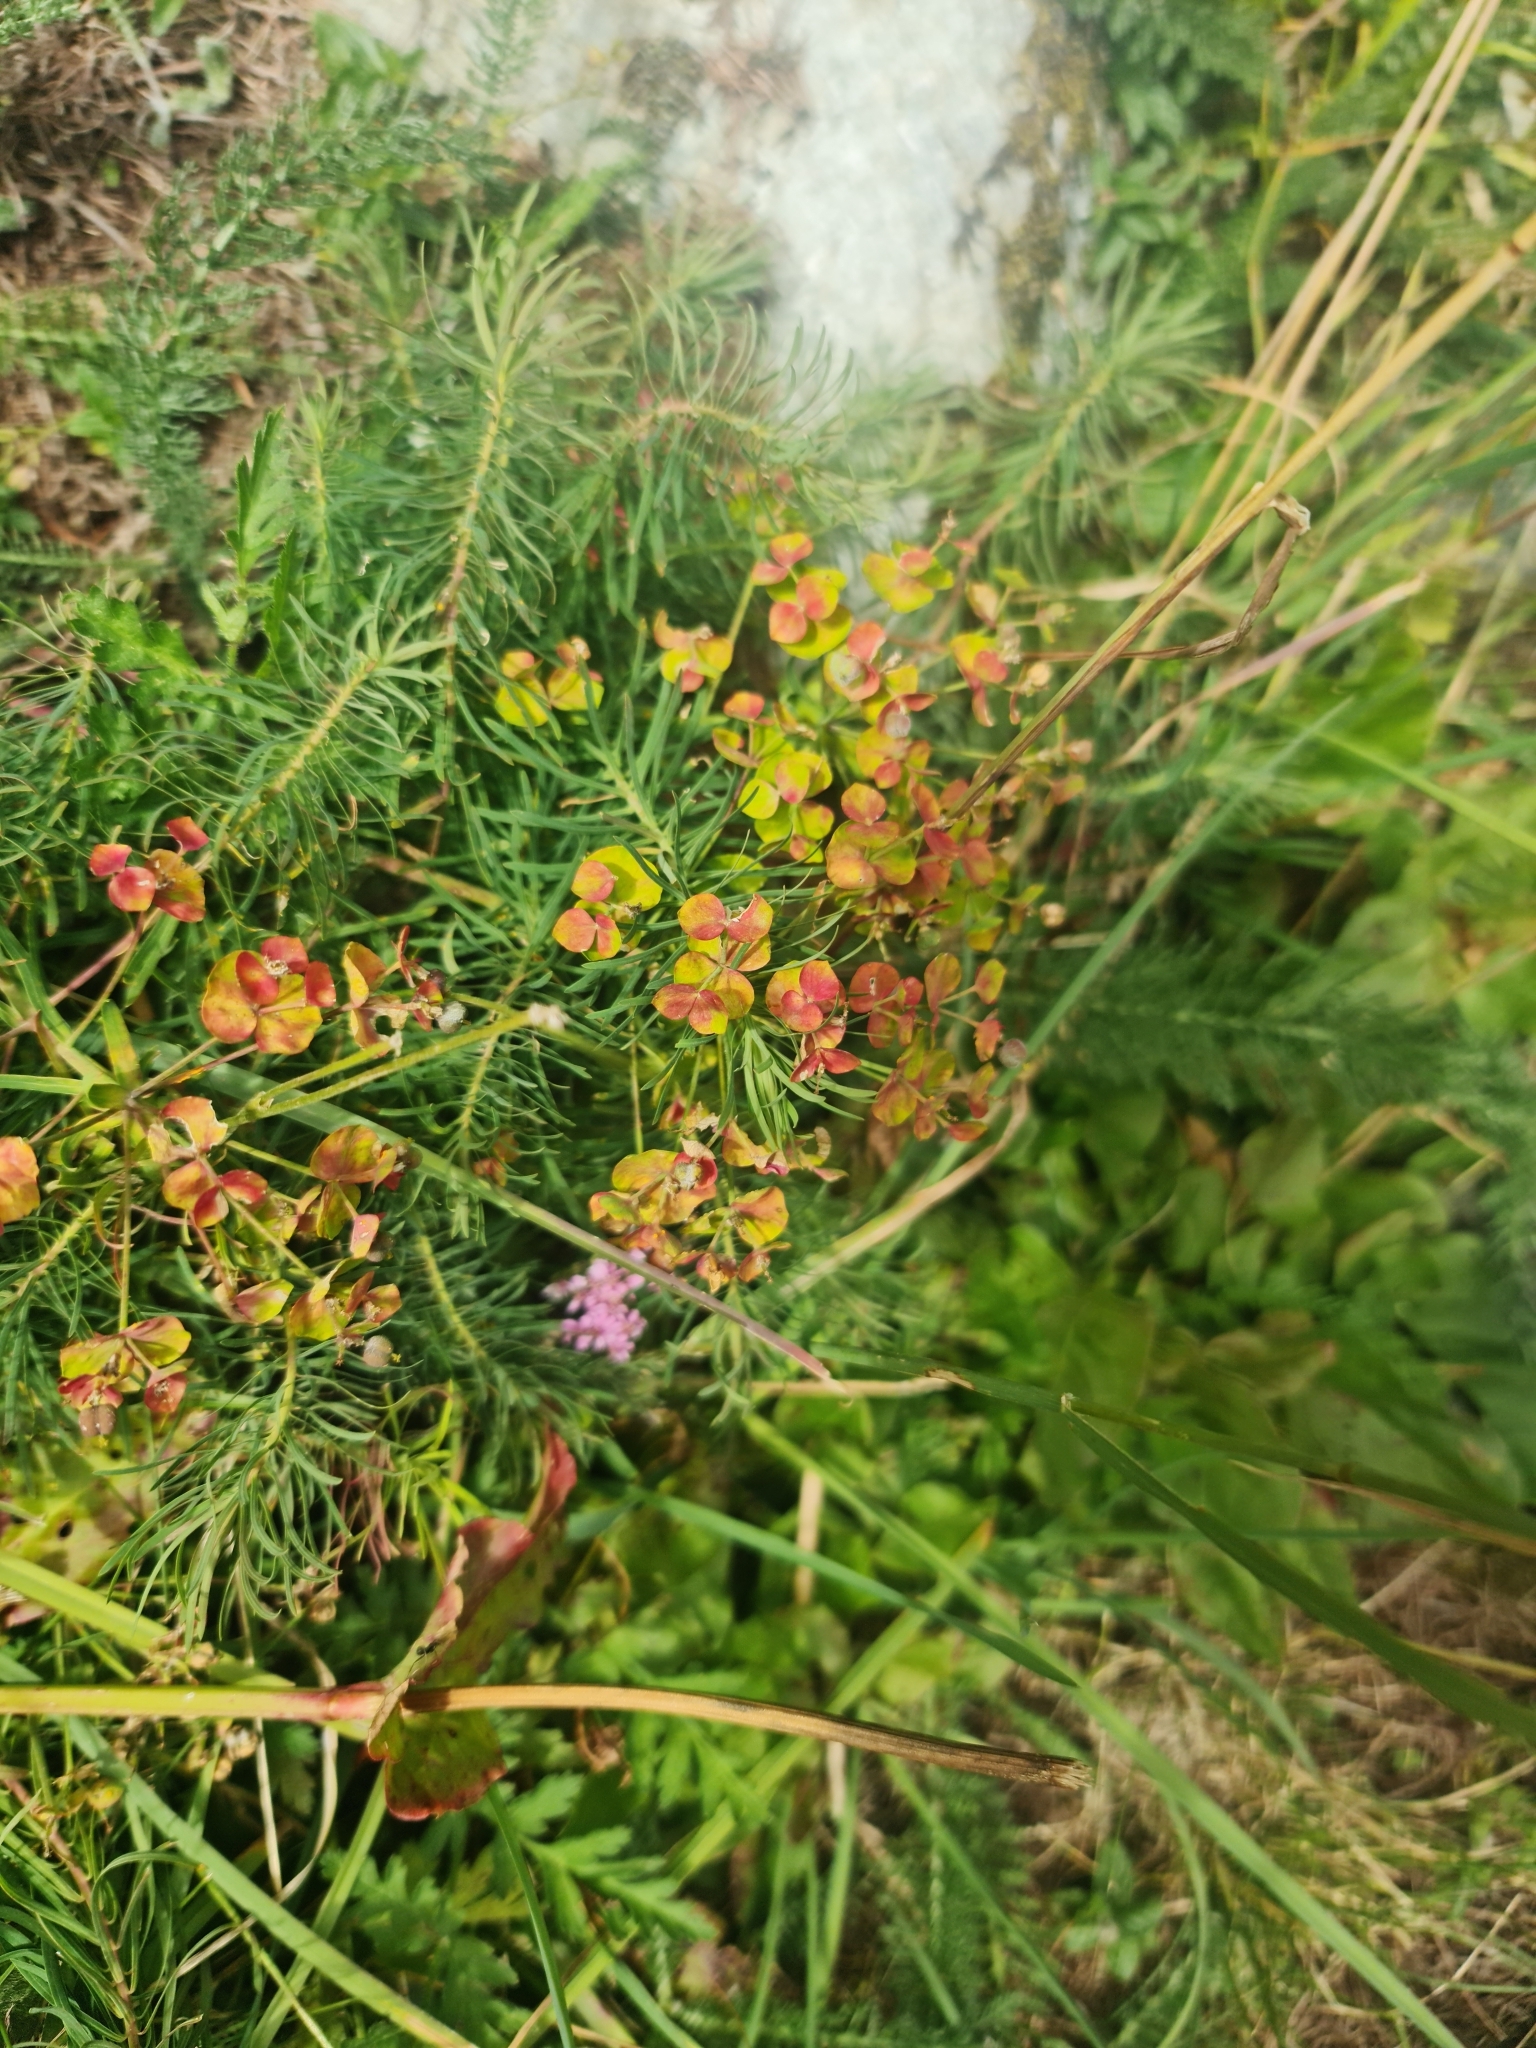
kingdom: Plantae
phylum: Tracheophyta
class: Magnoliopsida
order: Malpighiales
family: Euphorbiaceae
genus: Euphorbia
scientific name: Euphorbia cyparissias
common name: Cypress spurge
